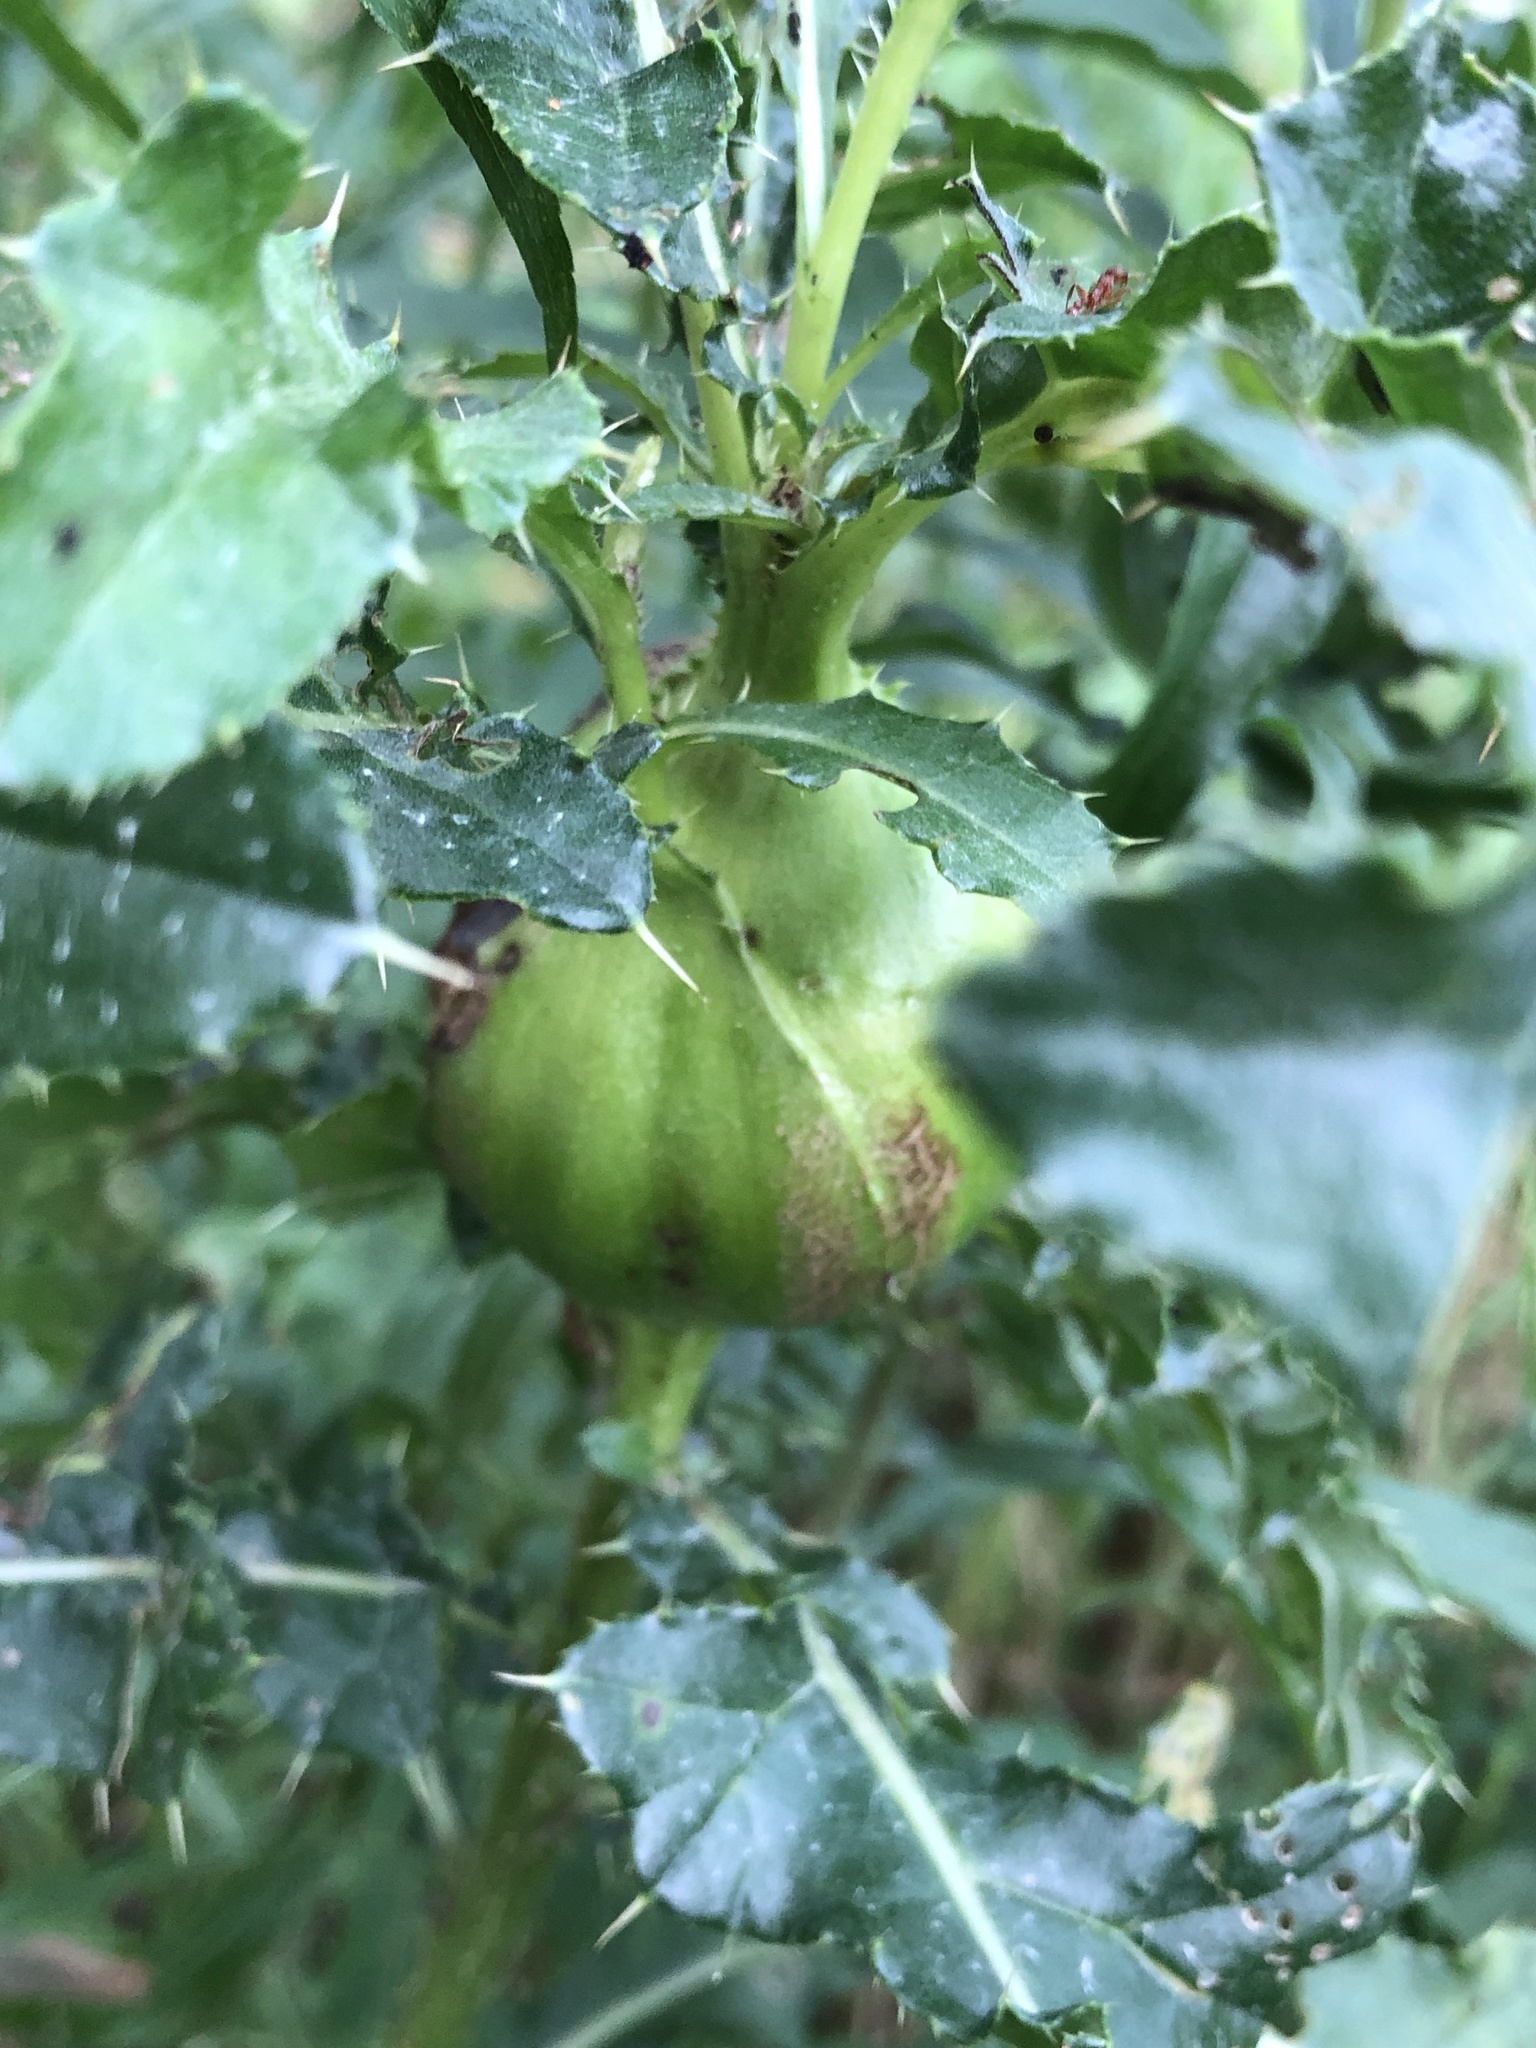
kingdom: Animalia
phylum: Arthropoda
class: Insecta
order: Diptera
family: Tephritidae
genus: Urophora
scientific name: Urophora cardui
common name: Fruit fly
